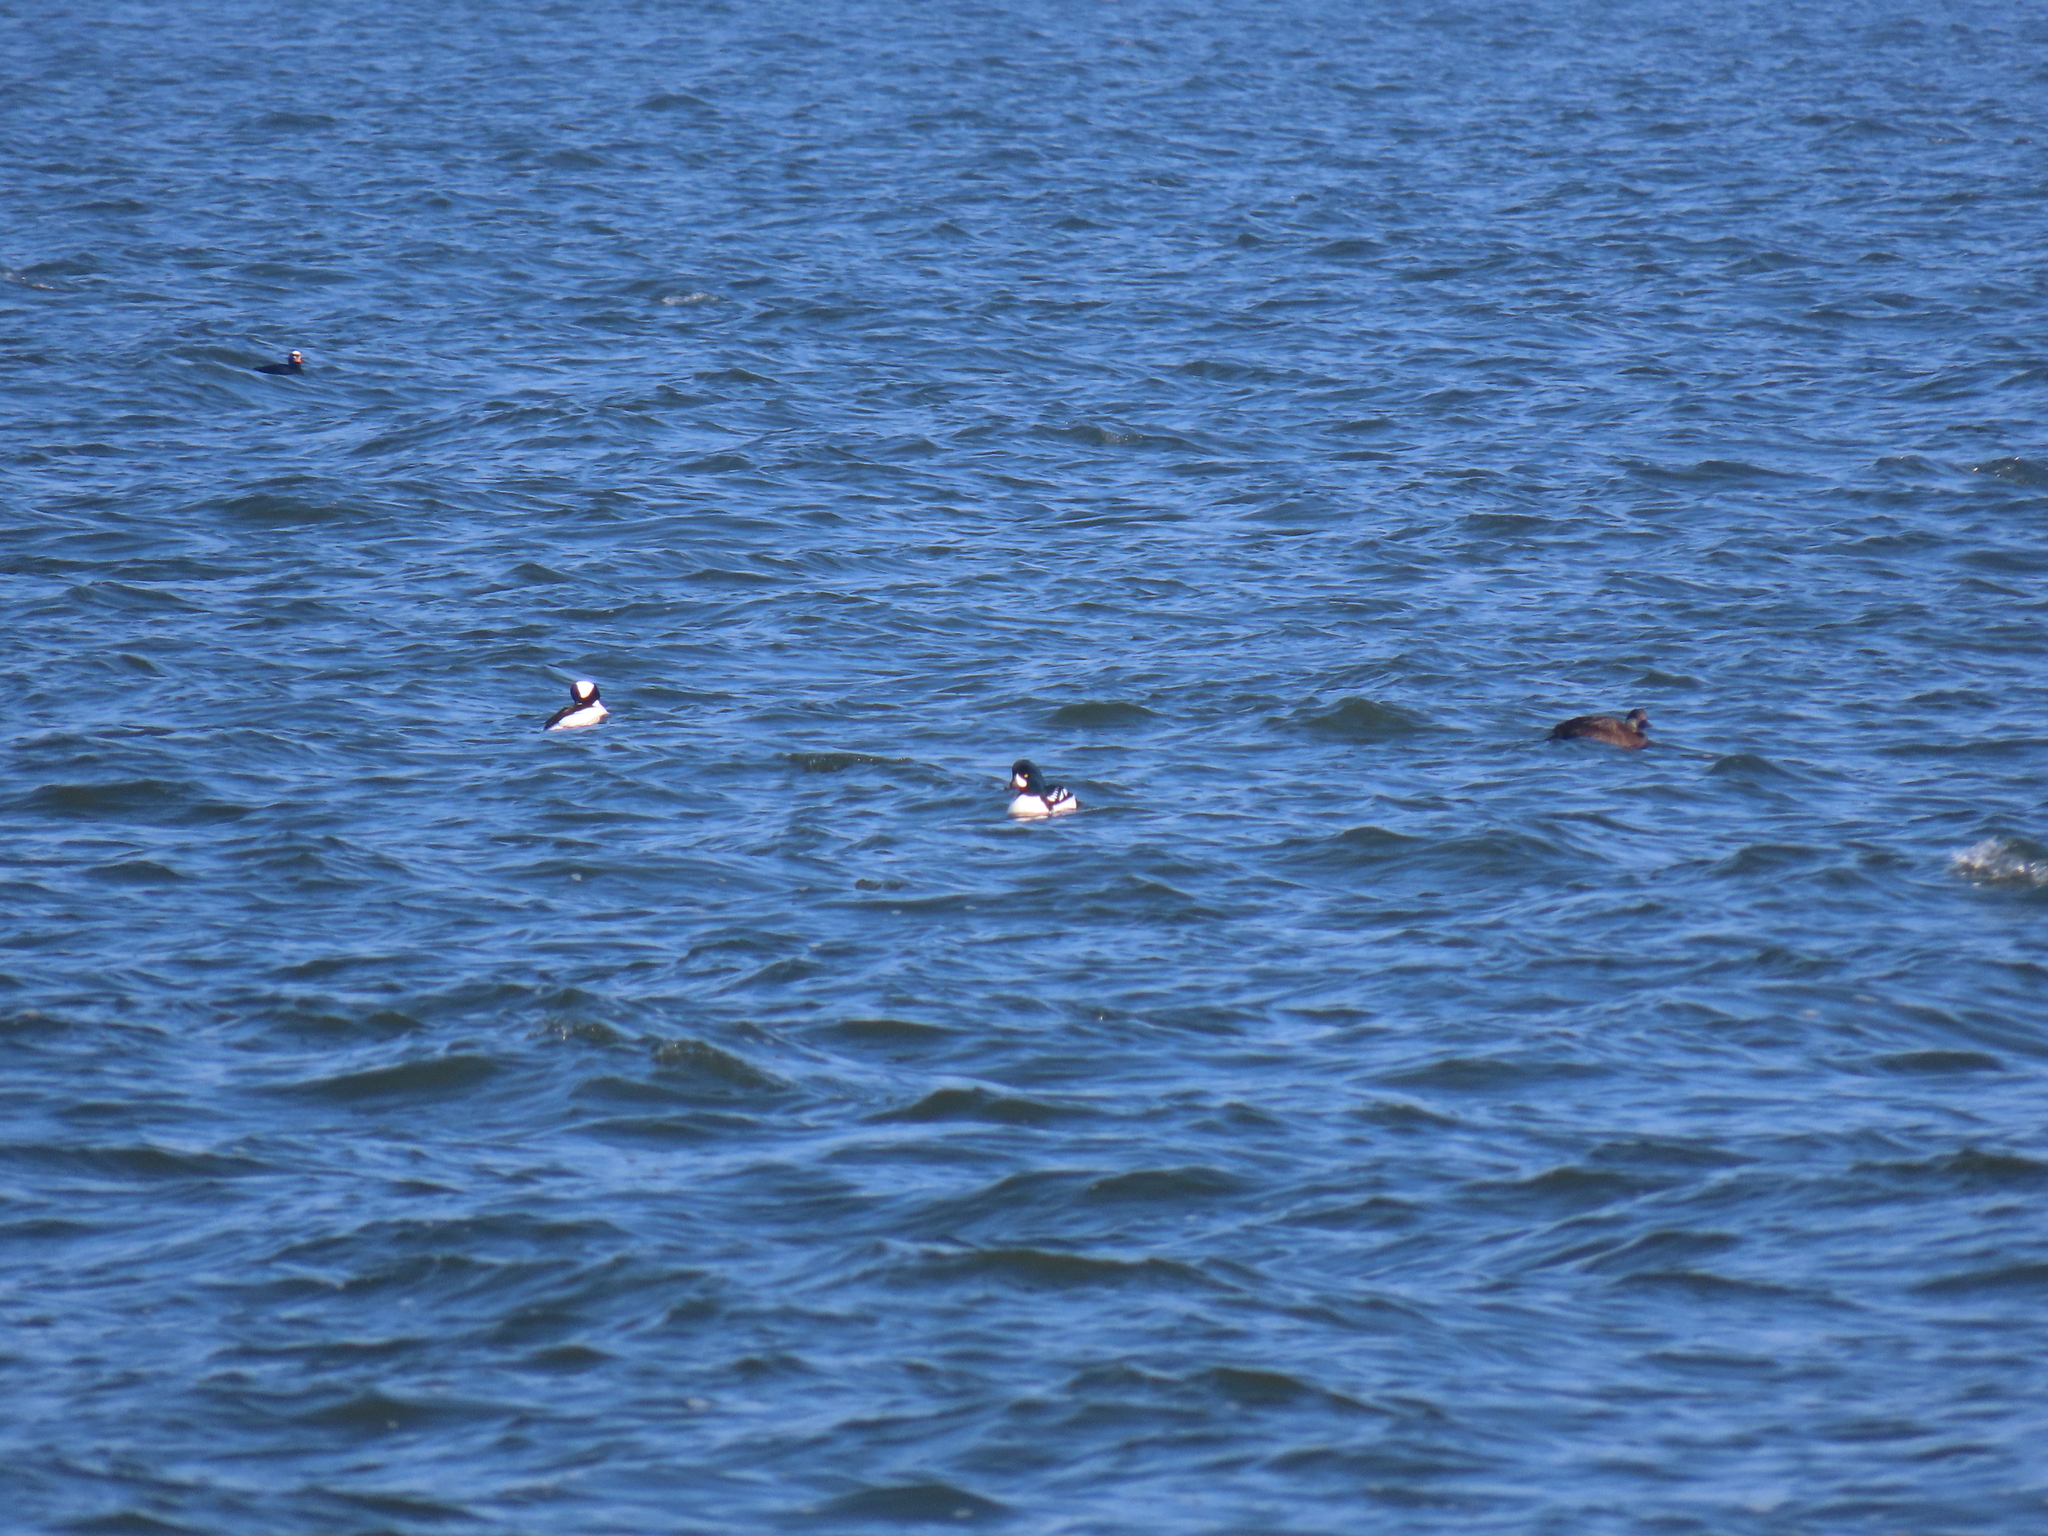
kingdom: Animalia
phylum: Chordata
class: Aves
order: Anseriformes
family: Anatidae
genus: Bucephala
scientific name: Bucephala islandica
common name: Barrow's goldeneye
